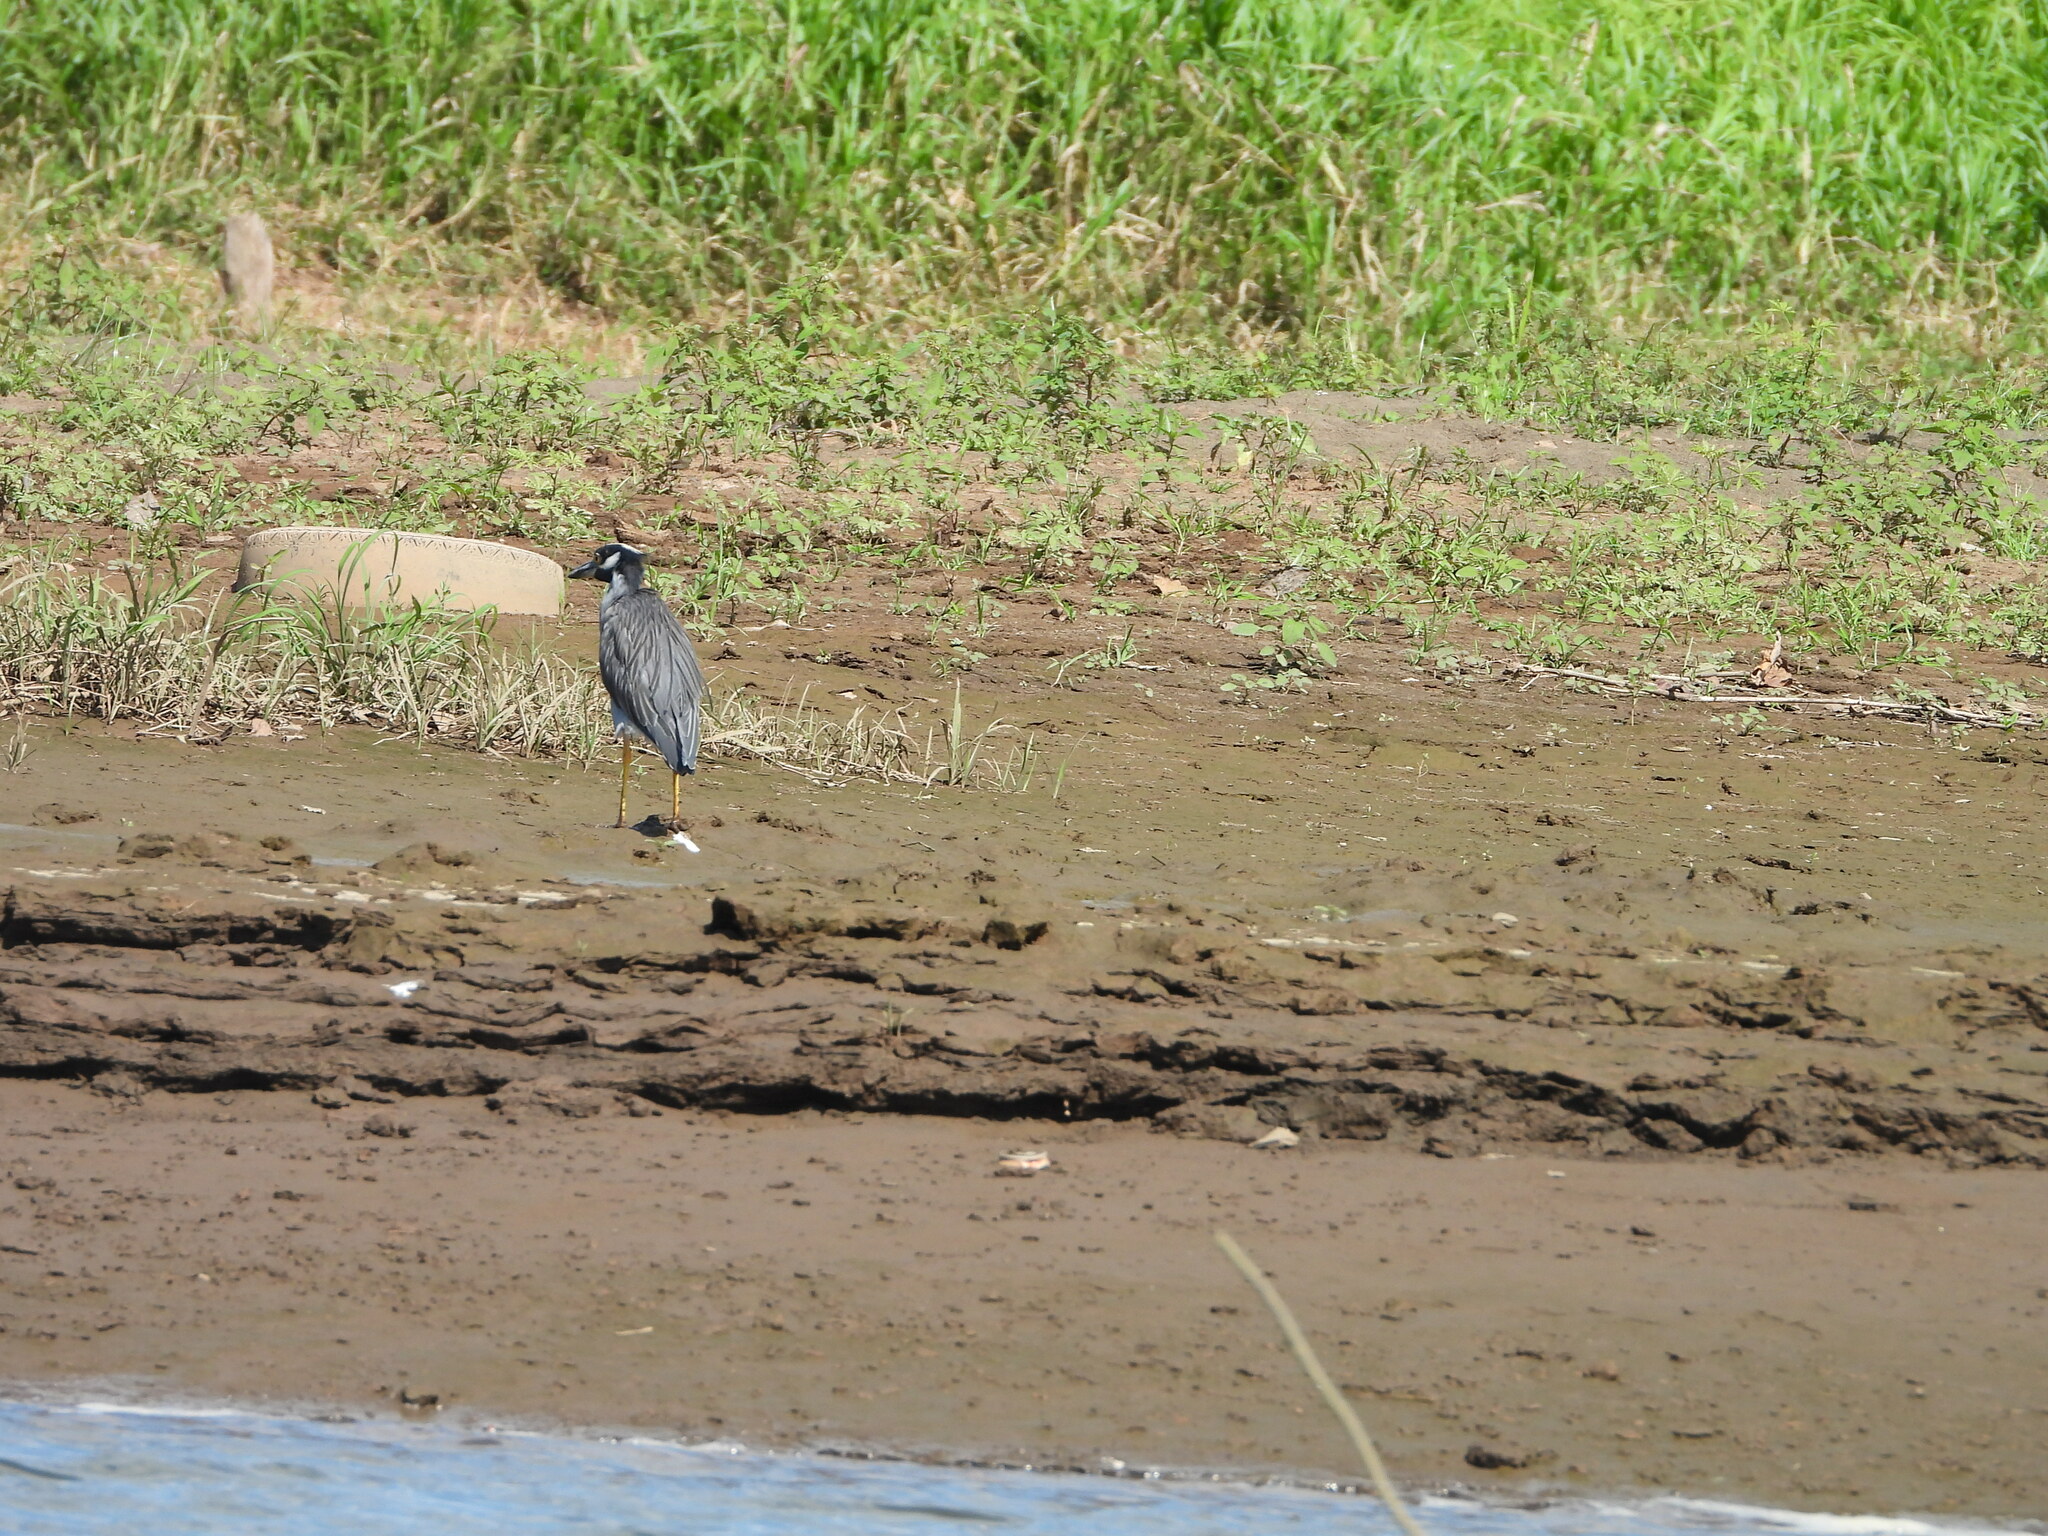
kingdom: Animalia
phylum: Chordata
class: Aves
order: Pelecaniformes
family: Ardeidae
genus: Nyctanassa
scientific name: Nyctanassa violacea
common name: Yellow-crowned night heron
